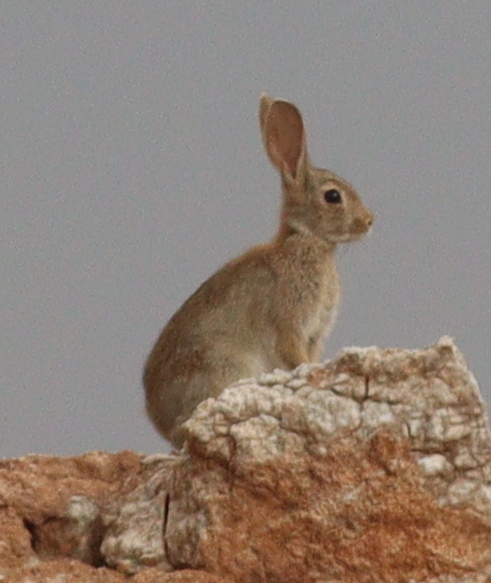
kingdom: Animalia
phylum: Chordata
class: Mammalia
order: Lagomorpha
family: Leporidae
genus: Oryctolagus
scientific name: Oryctolagus cuniculus
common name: European rabbit
